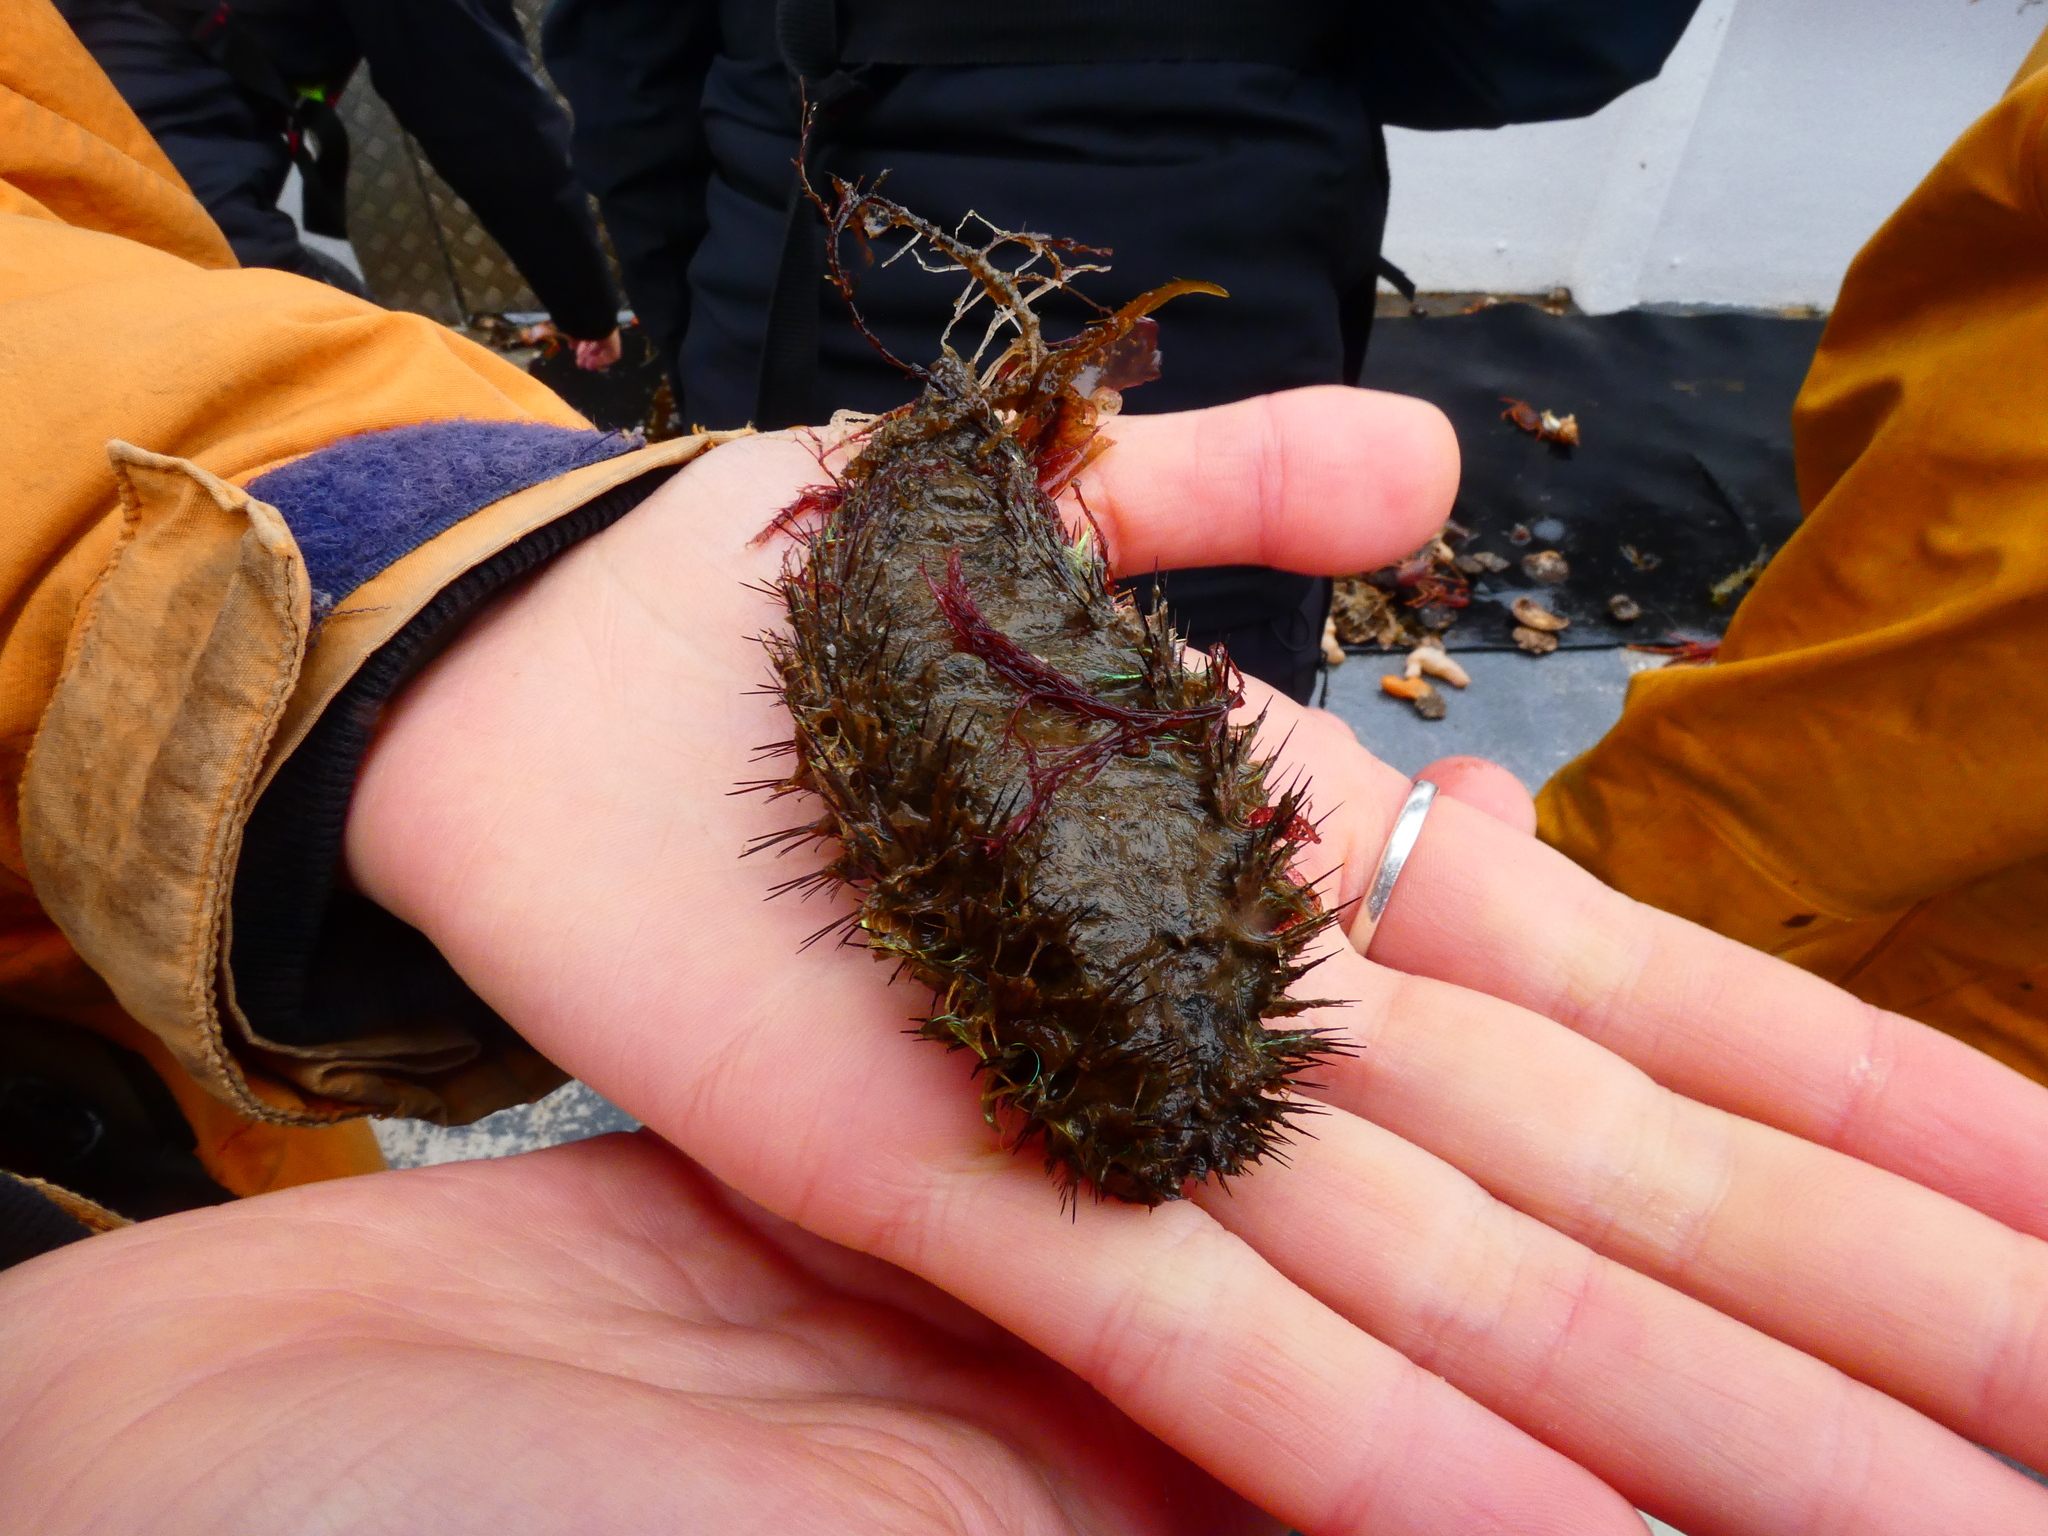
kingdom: Animalia
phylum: Annelida
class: Polychaeta
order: Phyllodocida
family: Aphroditidae
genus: Aphrodita
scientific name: Aphrodita aculeata
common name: Sea mouse
